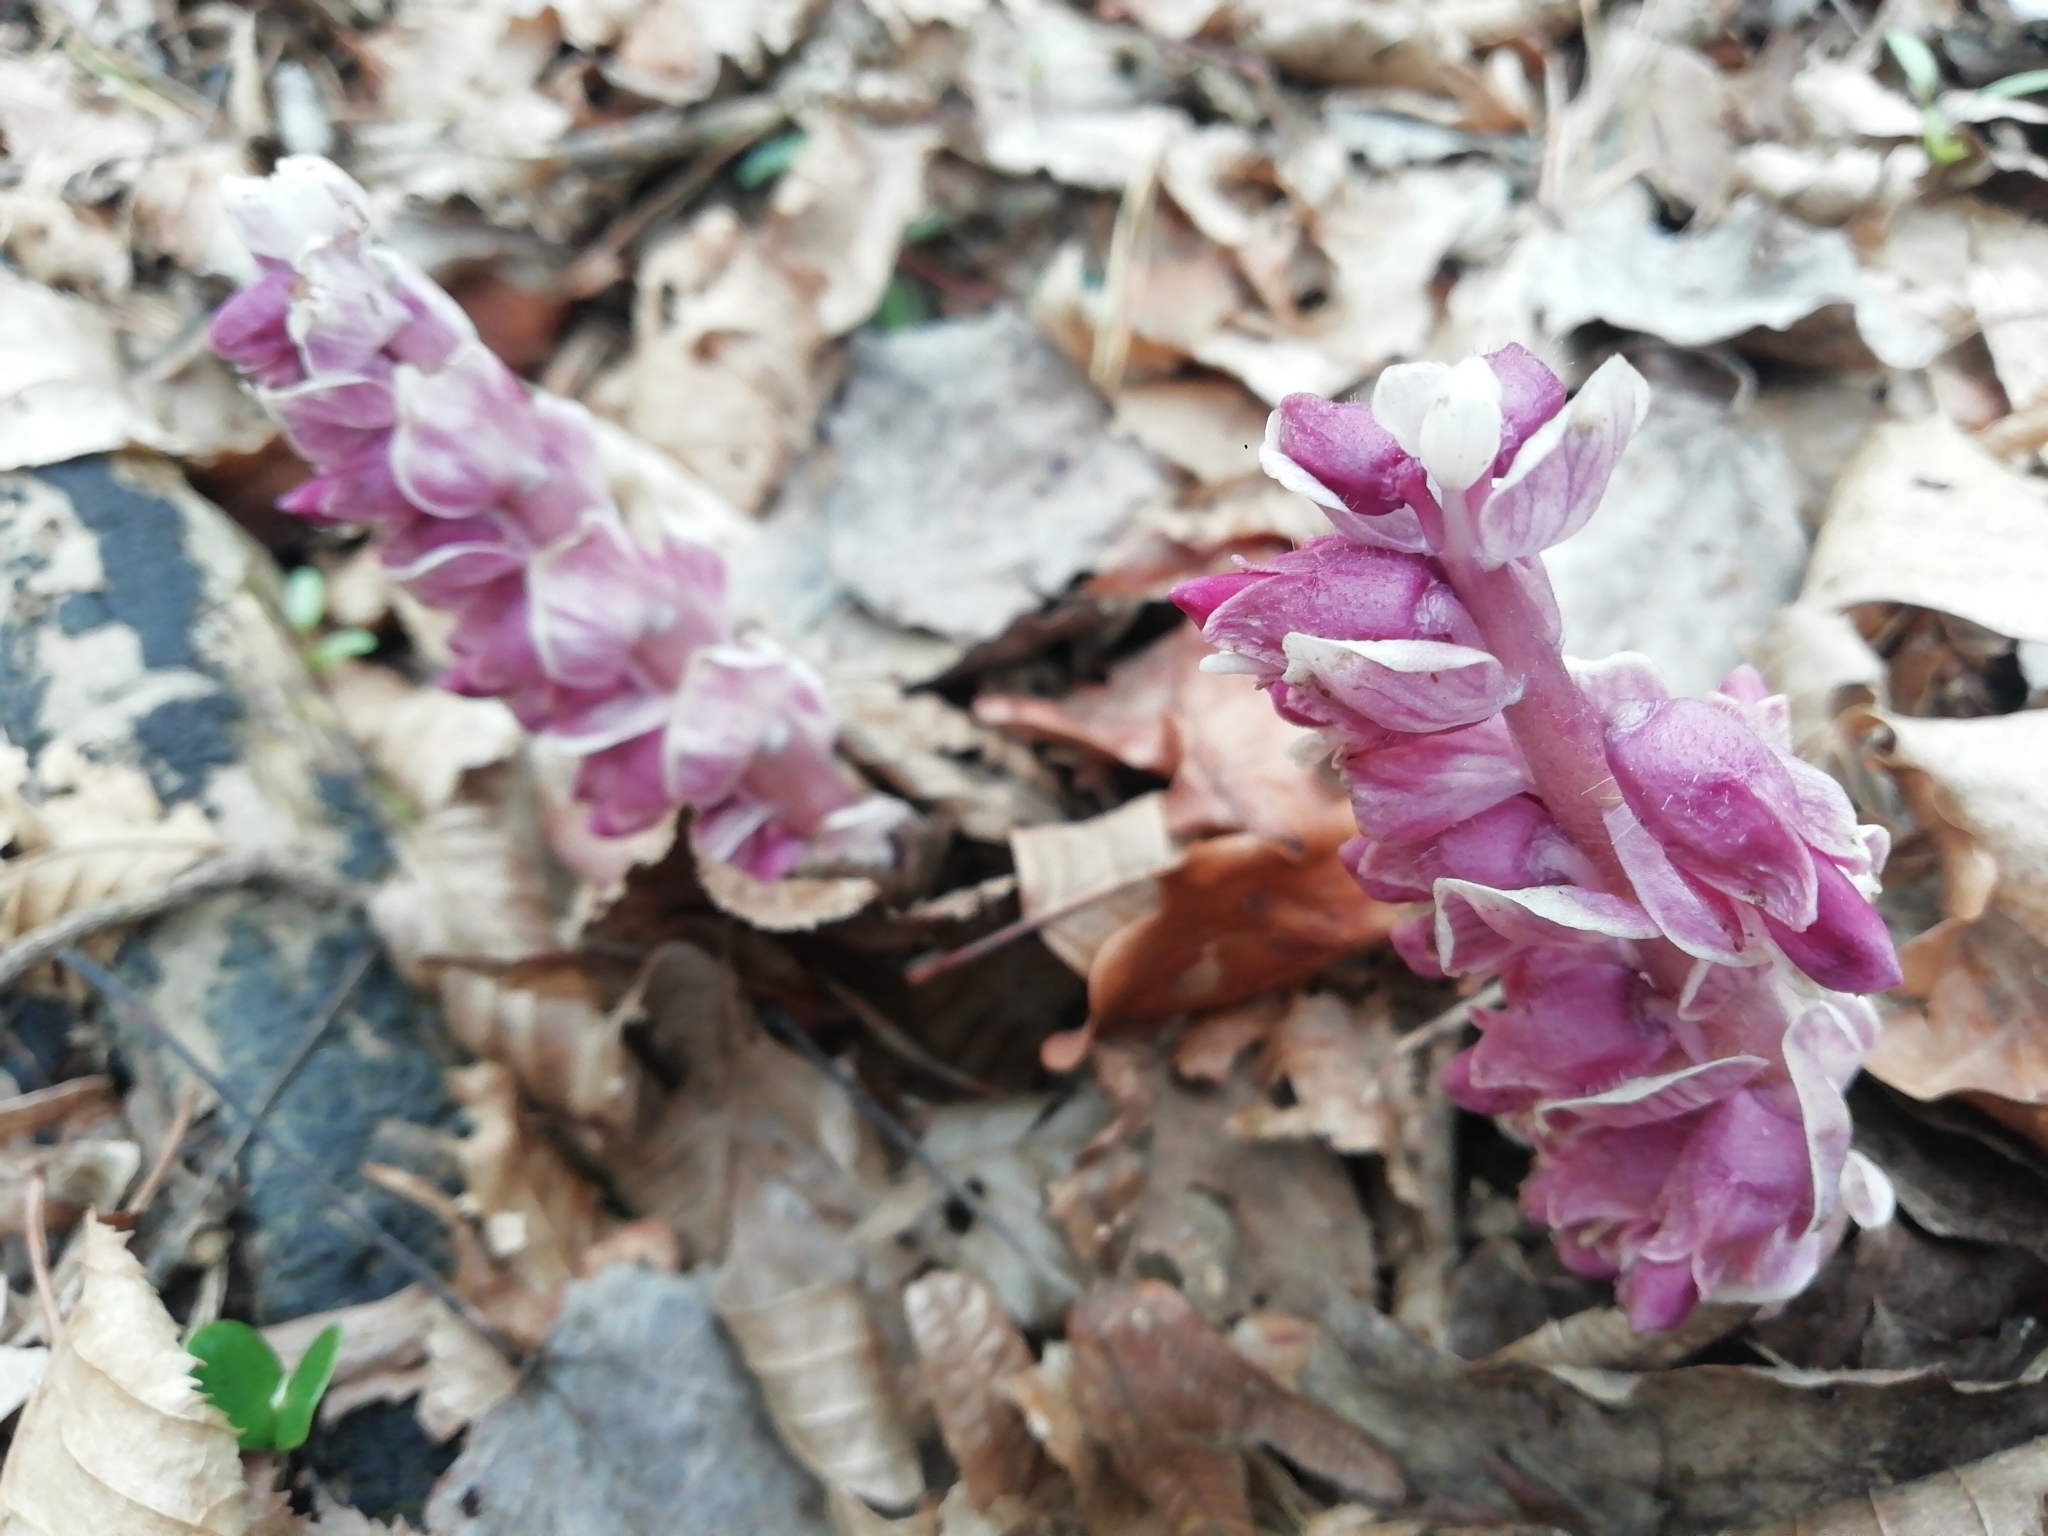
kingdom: Plantae
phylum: Tracheophyta
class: Magnoliopsida
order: Lamiales
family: Orobanchaceae
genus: Lathraea
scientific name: Lathraea squamaria
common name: Toothwort
